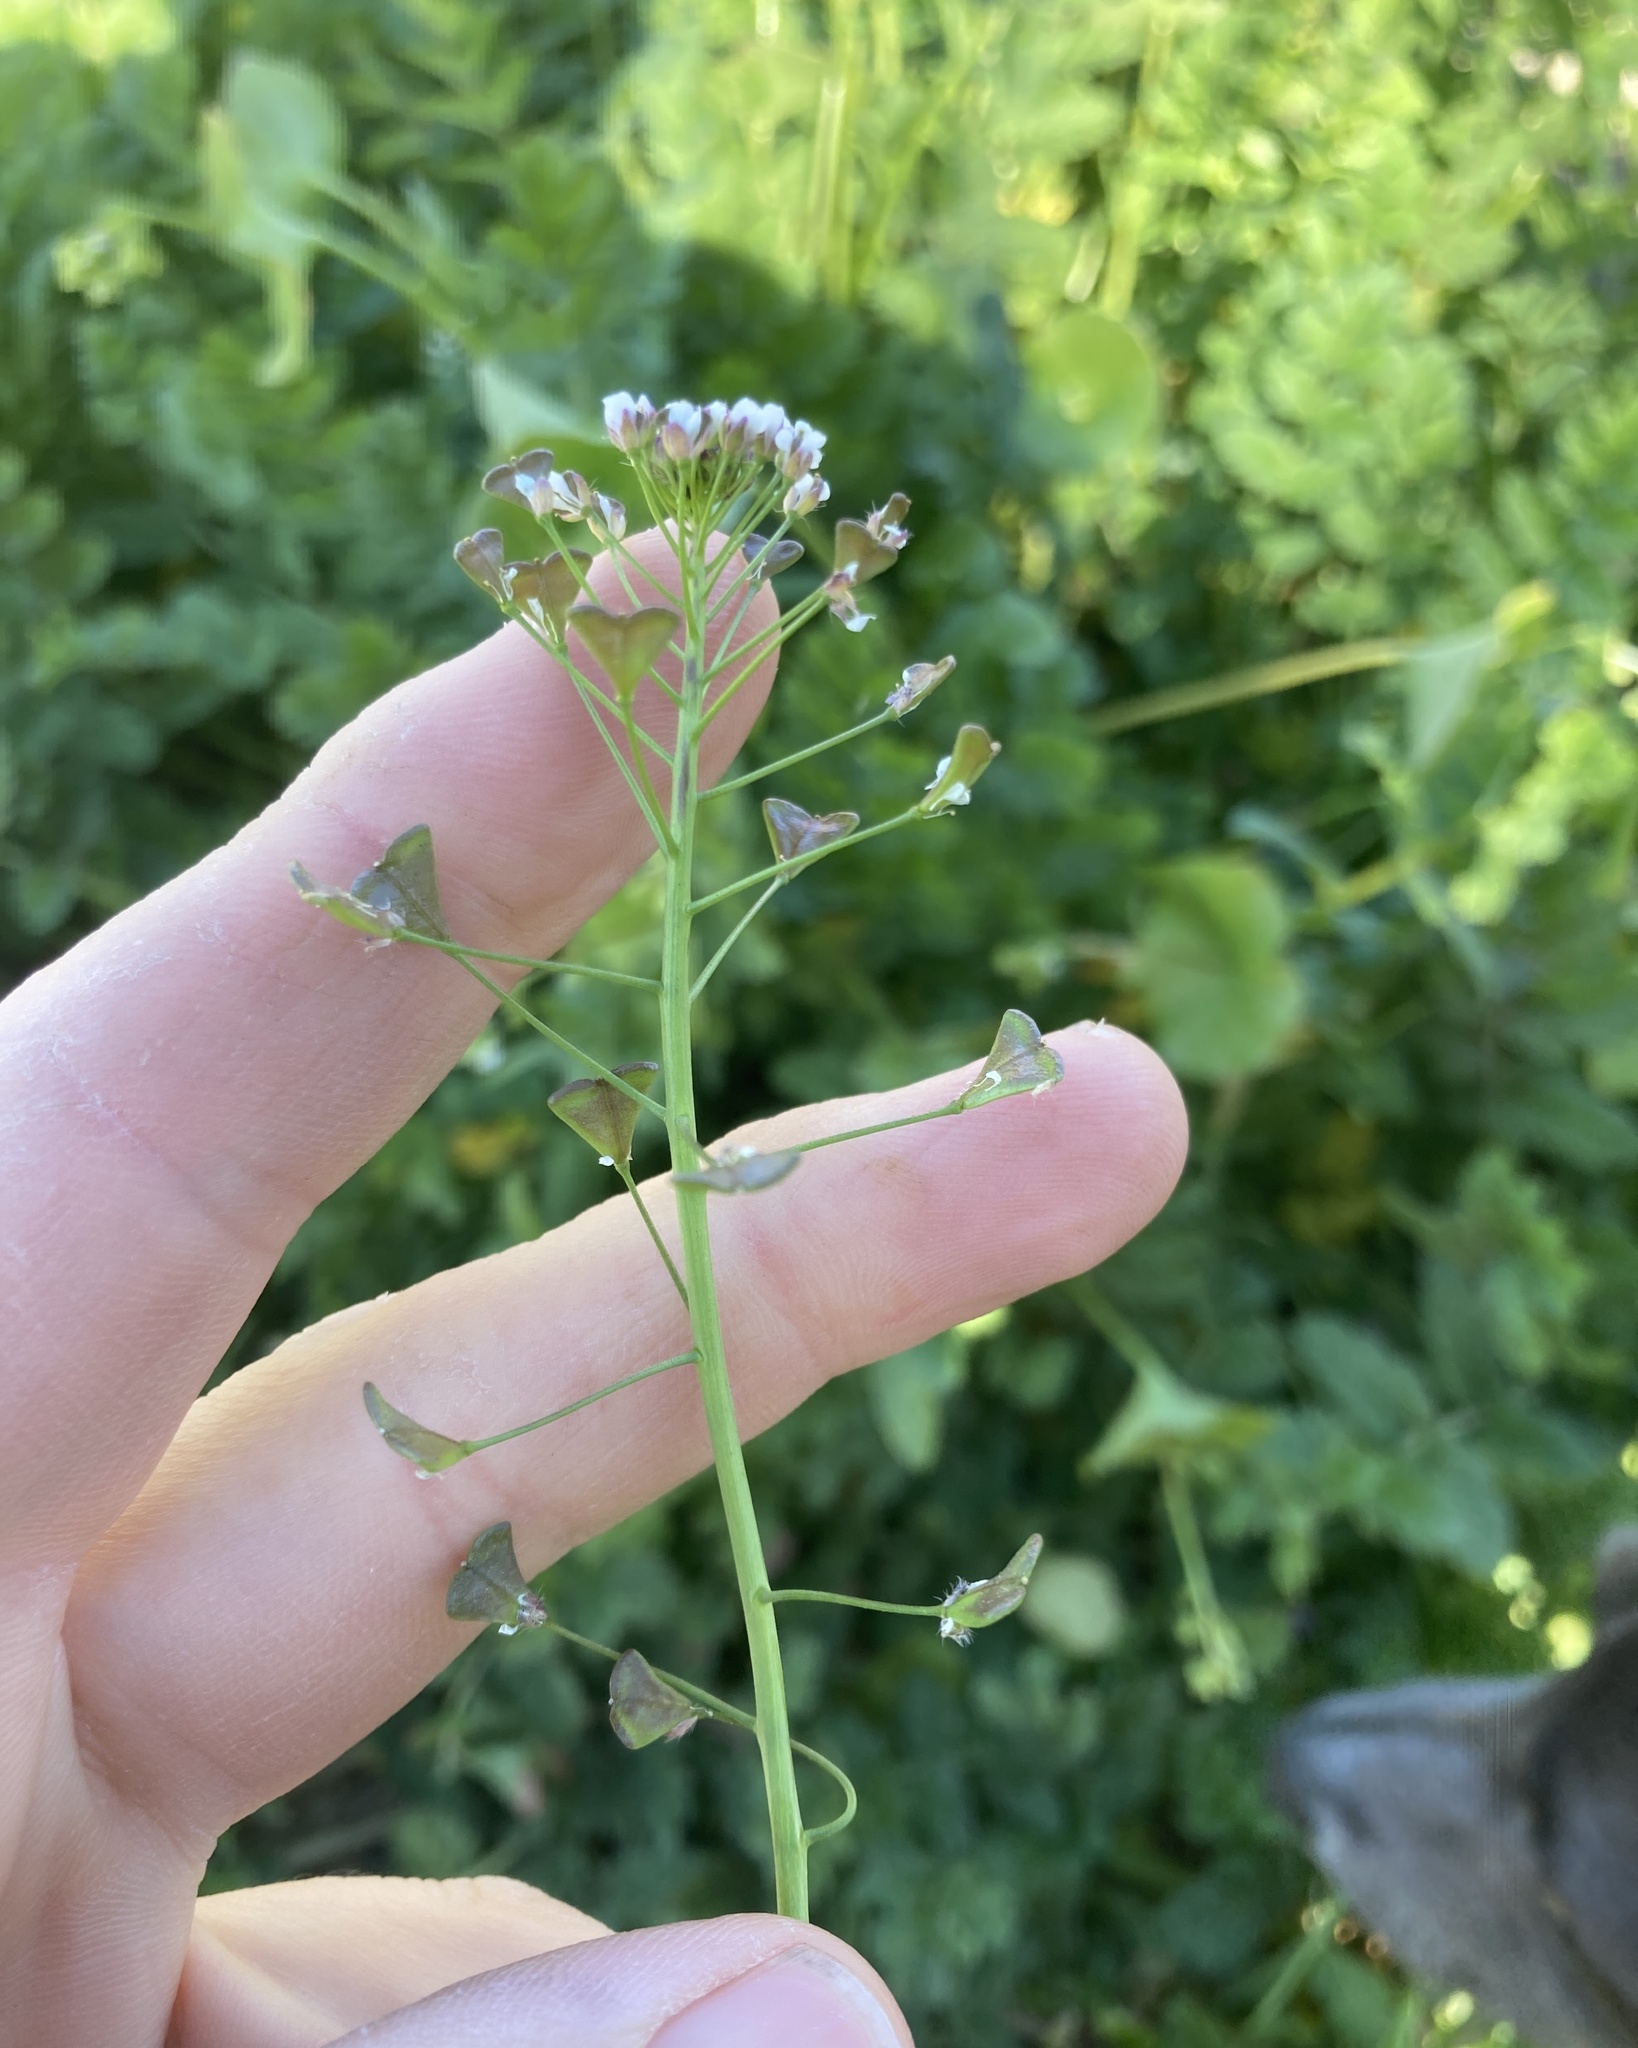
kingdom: Plantae
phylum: Tracheophyta
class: Magnoliopsida
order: Brassicales
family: Brassicaceae
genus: Capsella
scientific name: Capsella bursa-pastoris
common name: Shepherd's purse
